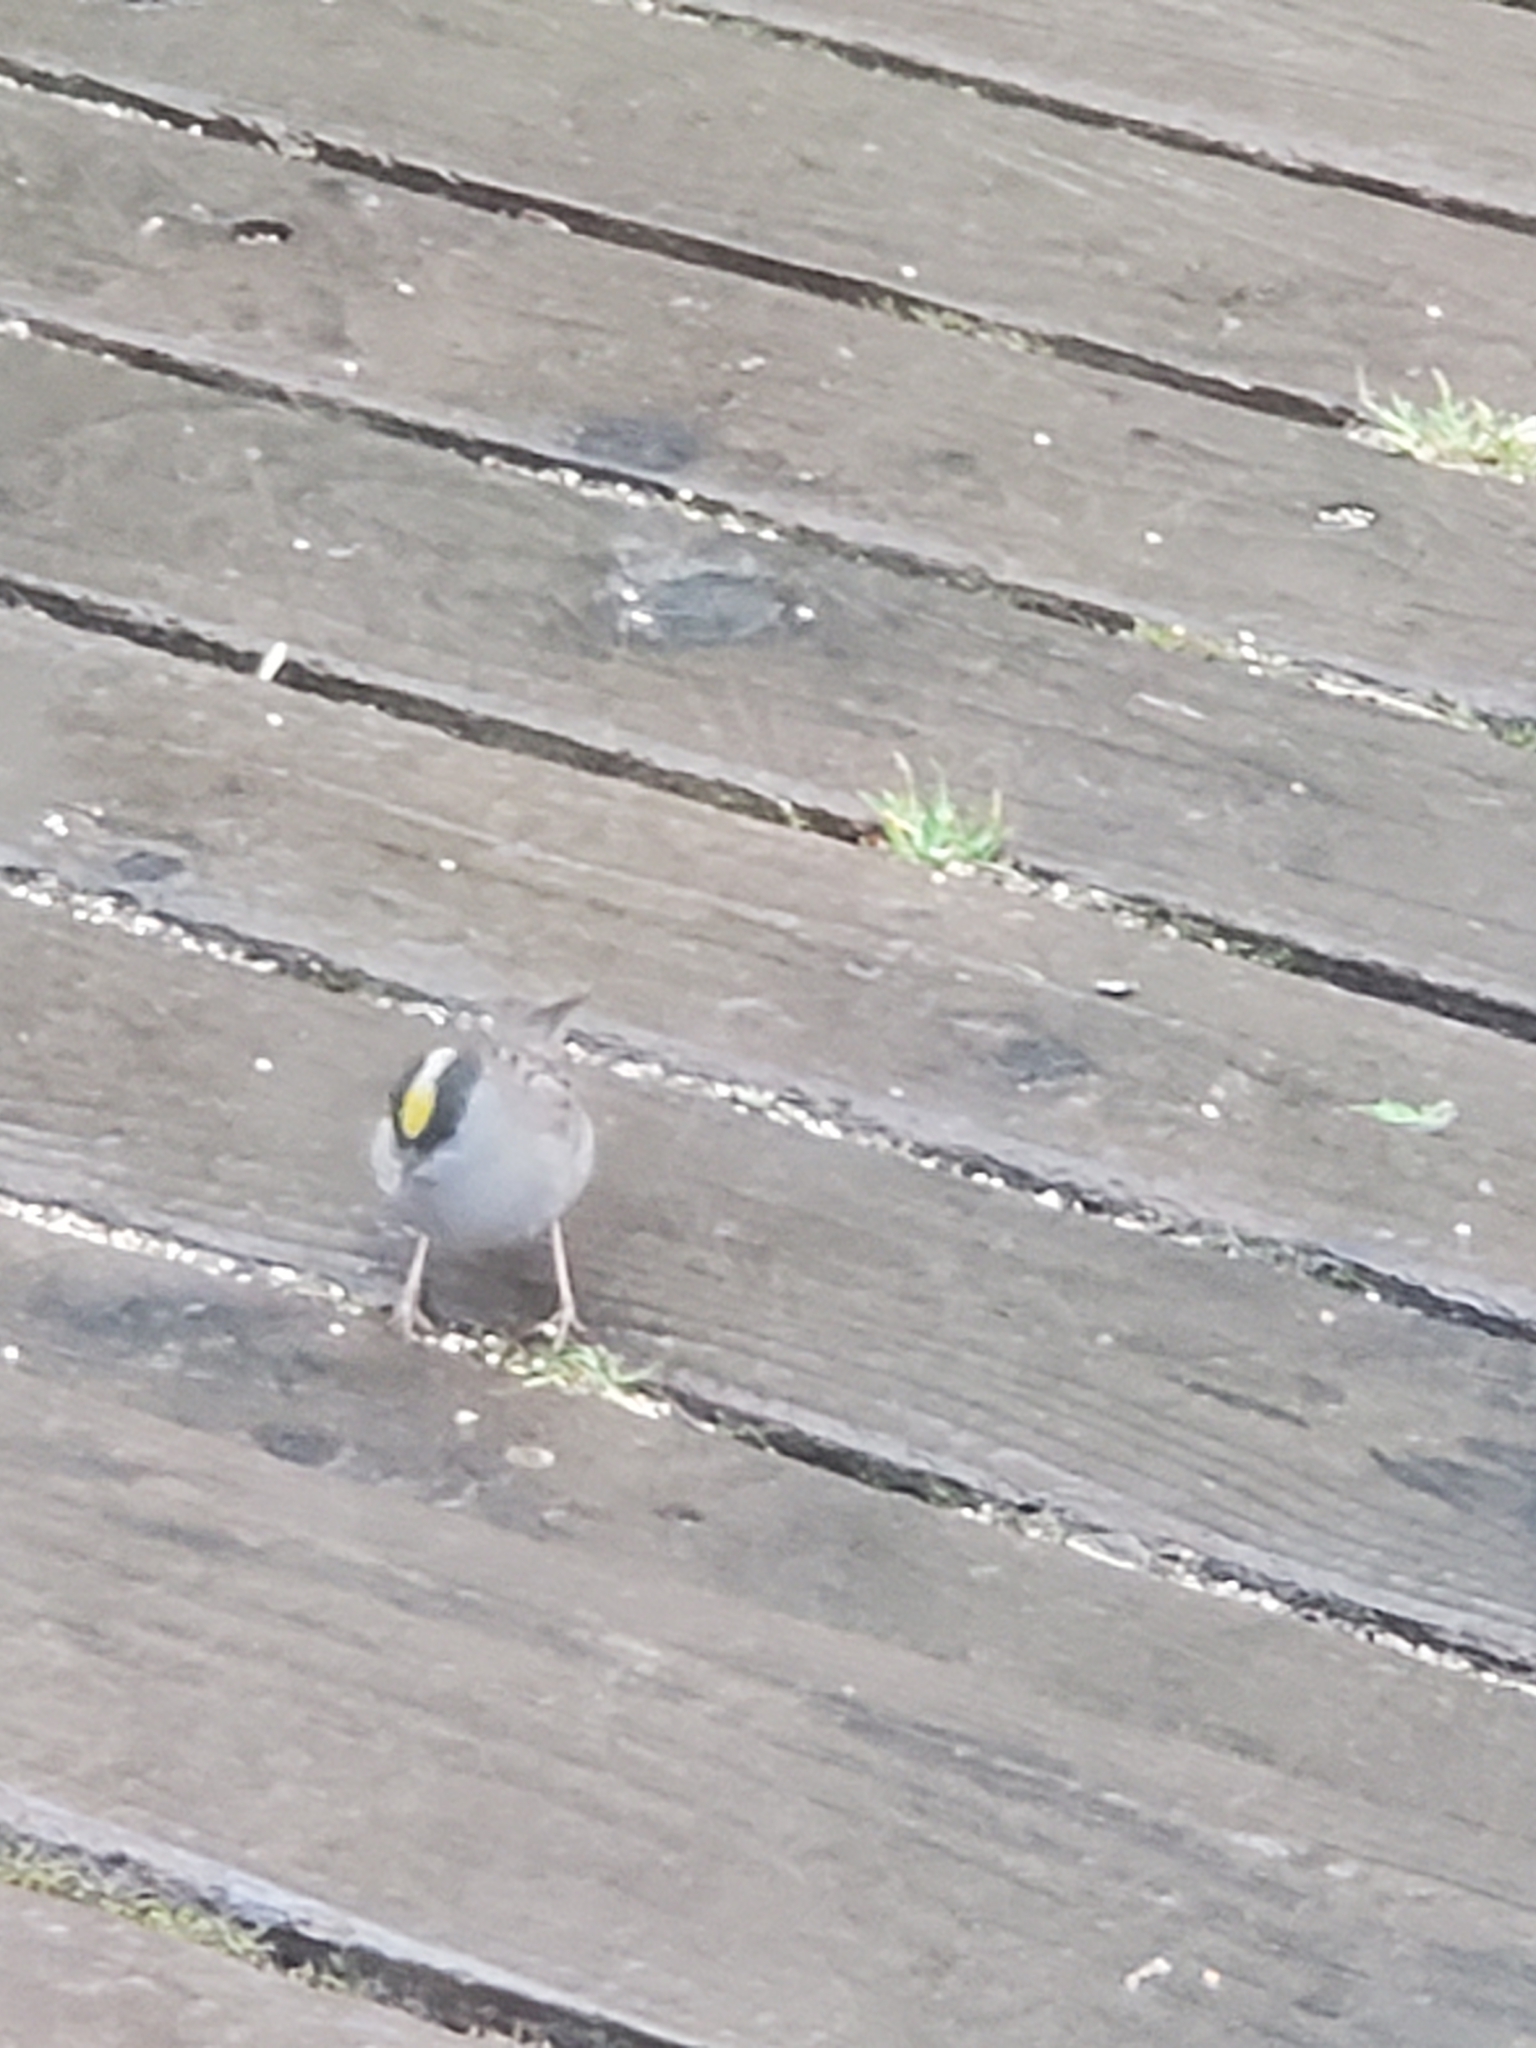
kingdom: Animalia
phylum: Chordata
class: Aves
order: Passeriformes
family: Passerellidae
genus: Zonotrichia
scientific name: Zonotrichia atricapilla
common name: Golden-crowned sparrow
